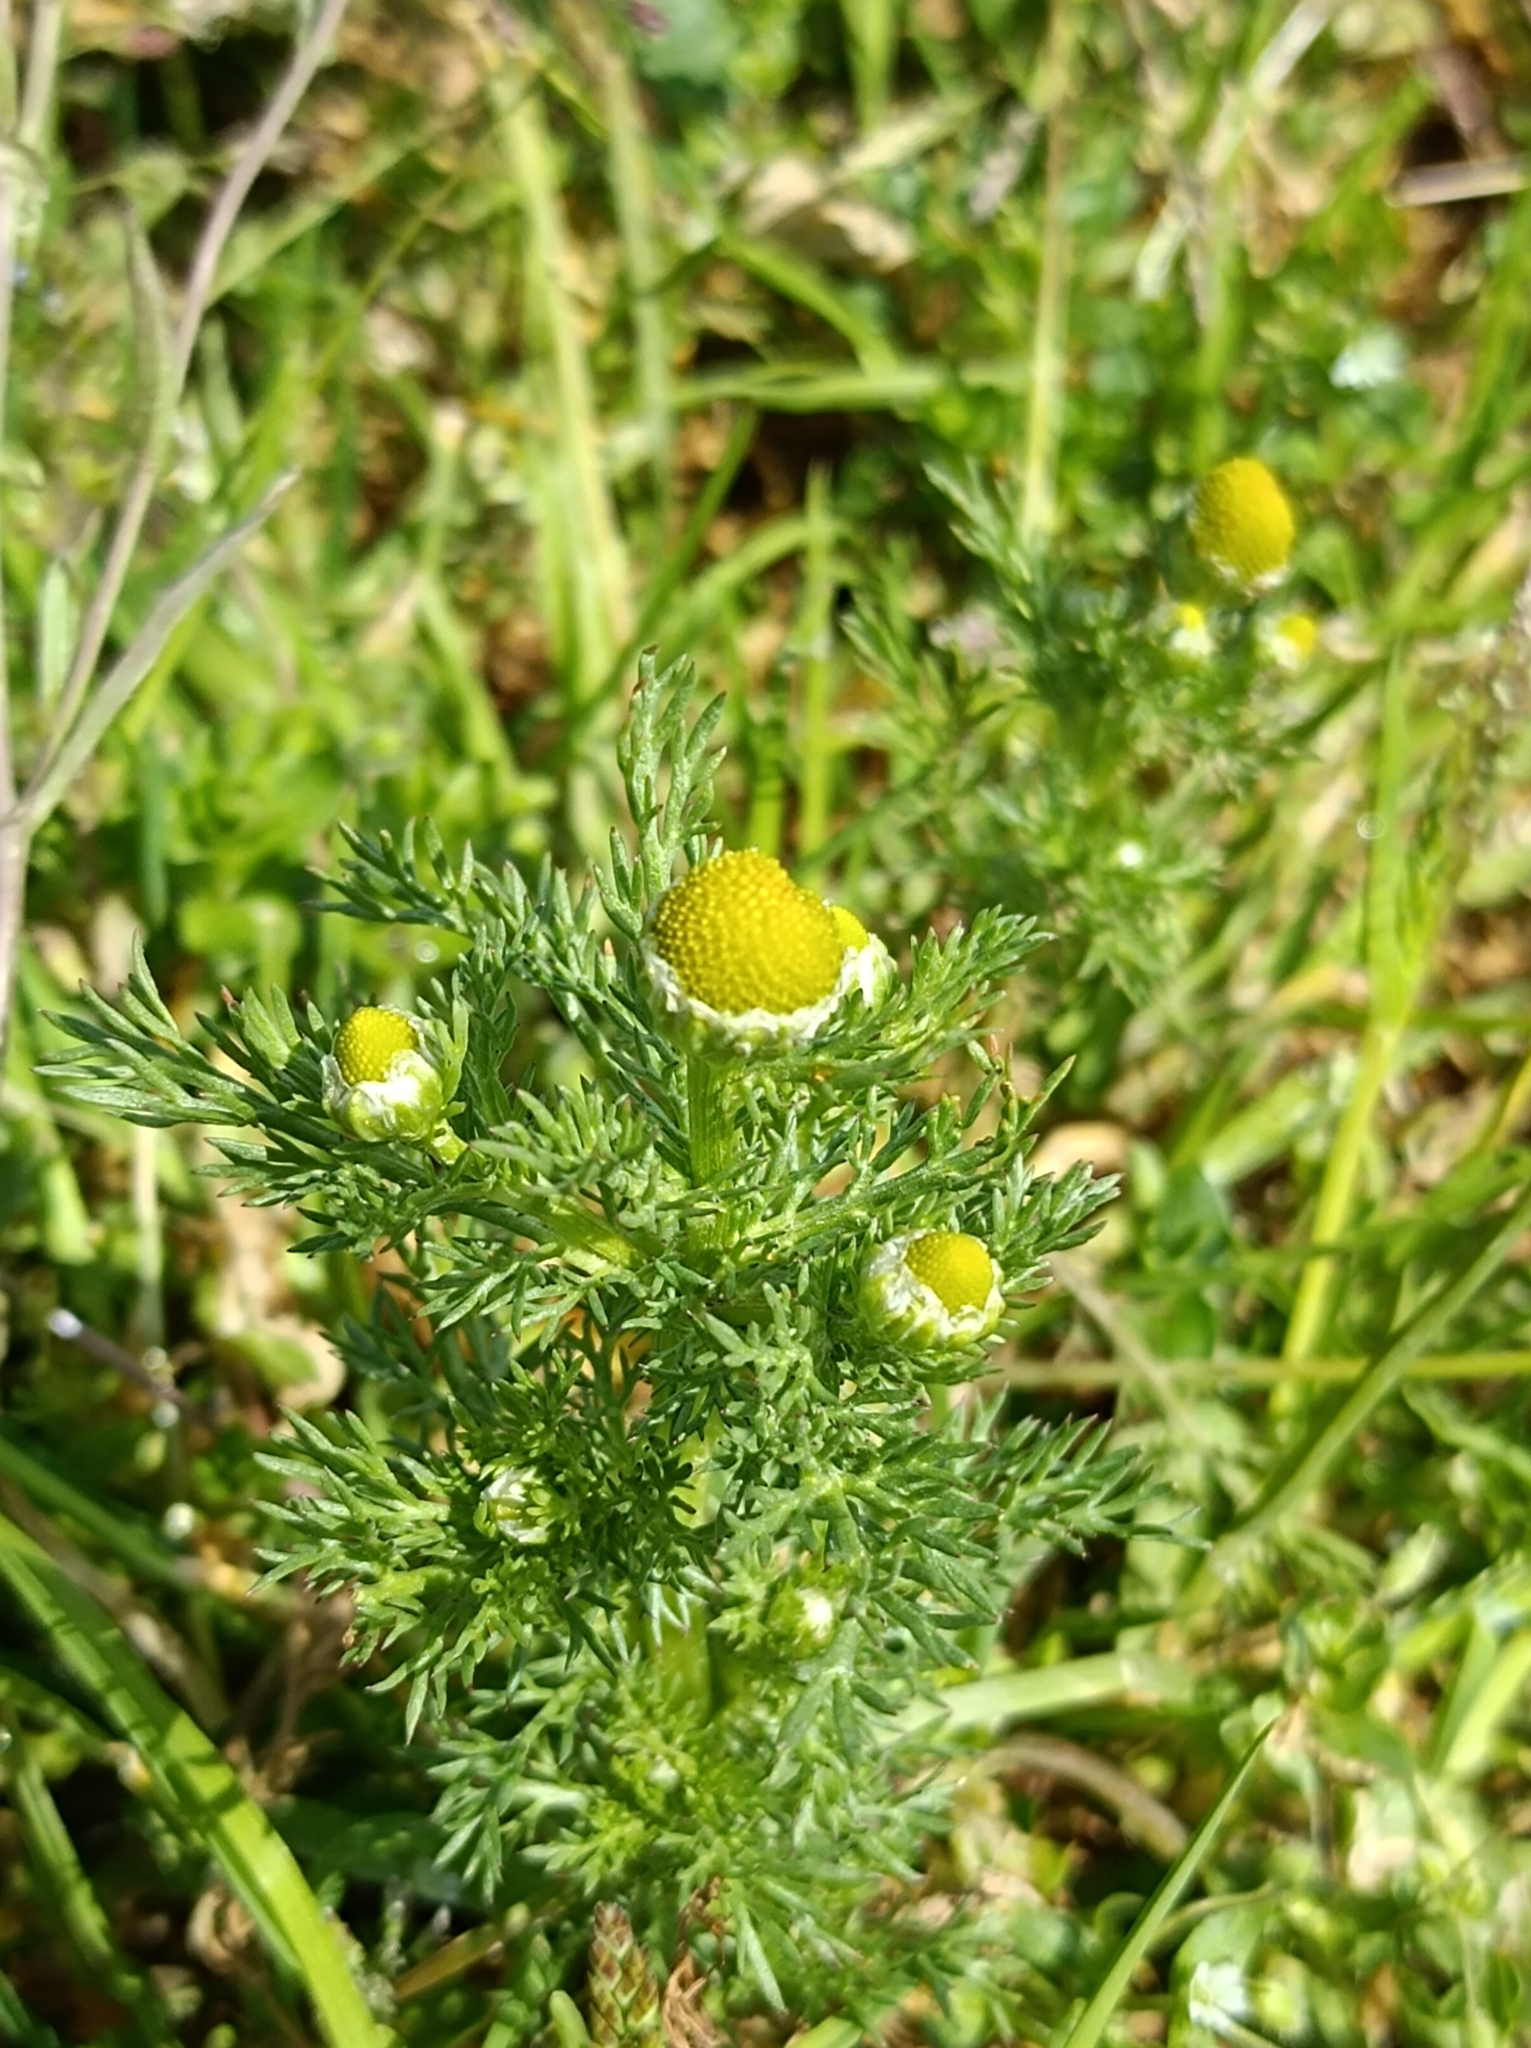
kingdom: Plantae
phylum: Tracheophyta
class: Magnoliopsida
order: Asterales
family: Asteraceae
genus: Matricaria
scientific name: Matricaria discoidea
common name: Disc mayweed
